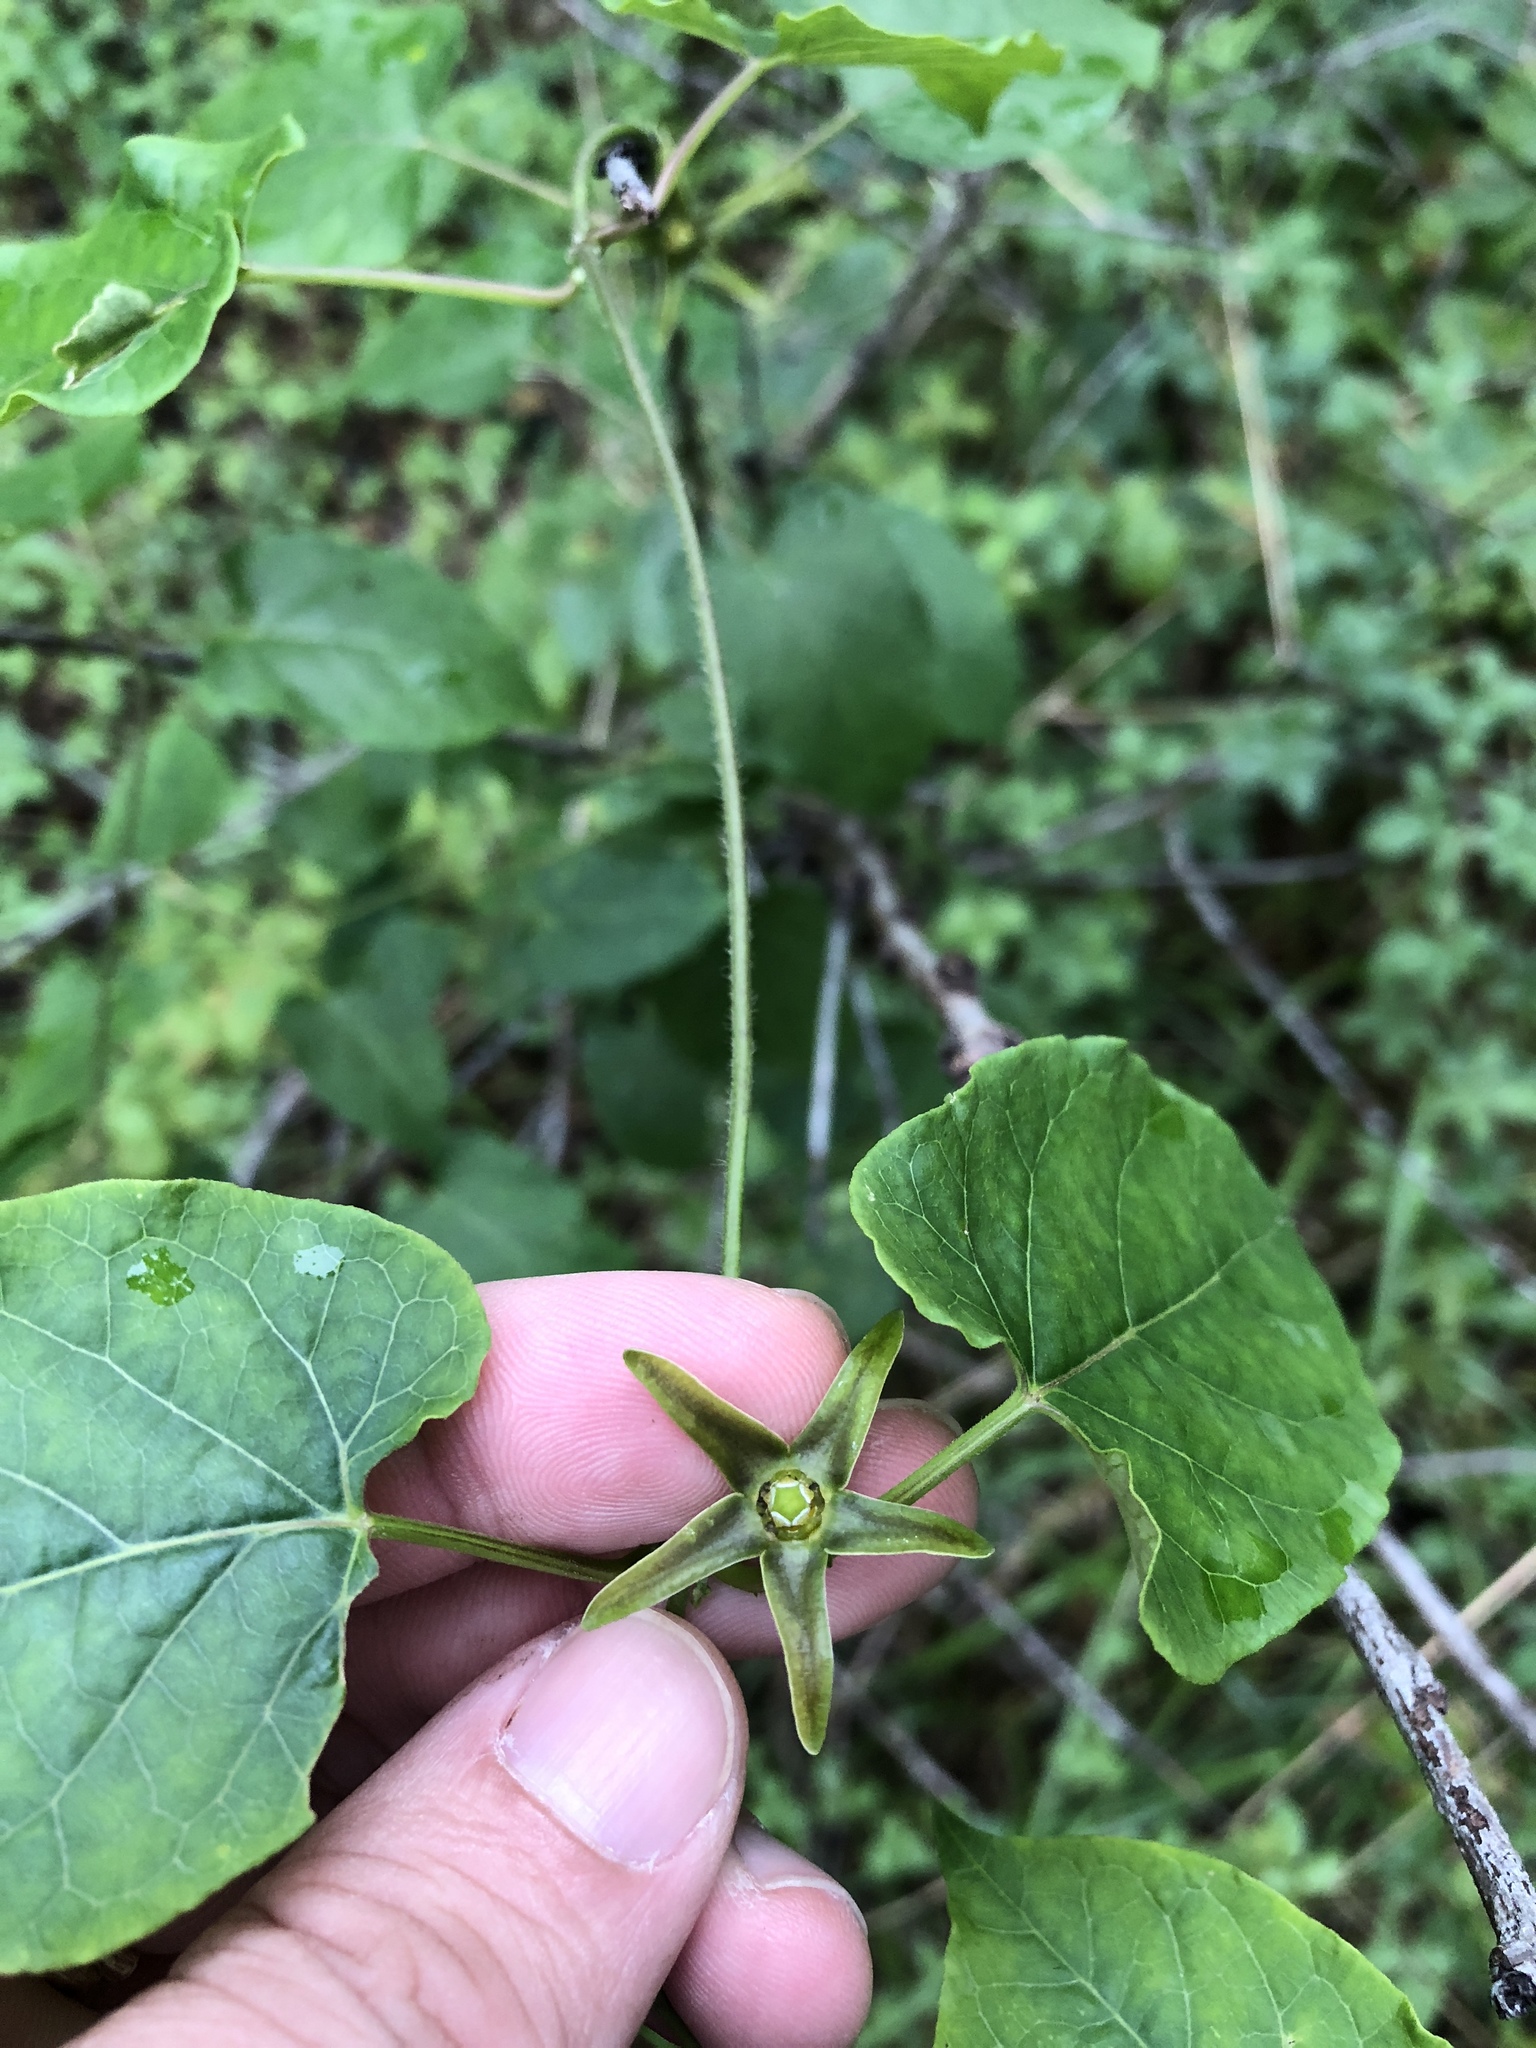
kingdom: Plantae
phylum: Tracheophyta
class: Magnoliopsida
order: Gentianales
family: Apocynaceae
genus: Gonolobus
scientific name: Gonolobus suberosus
